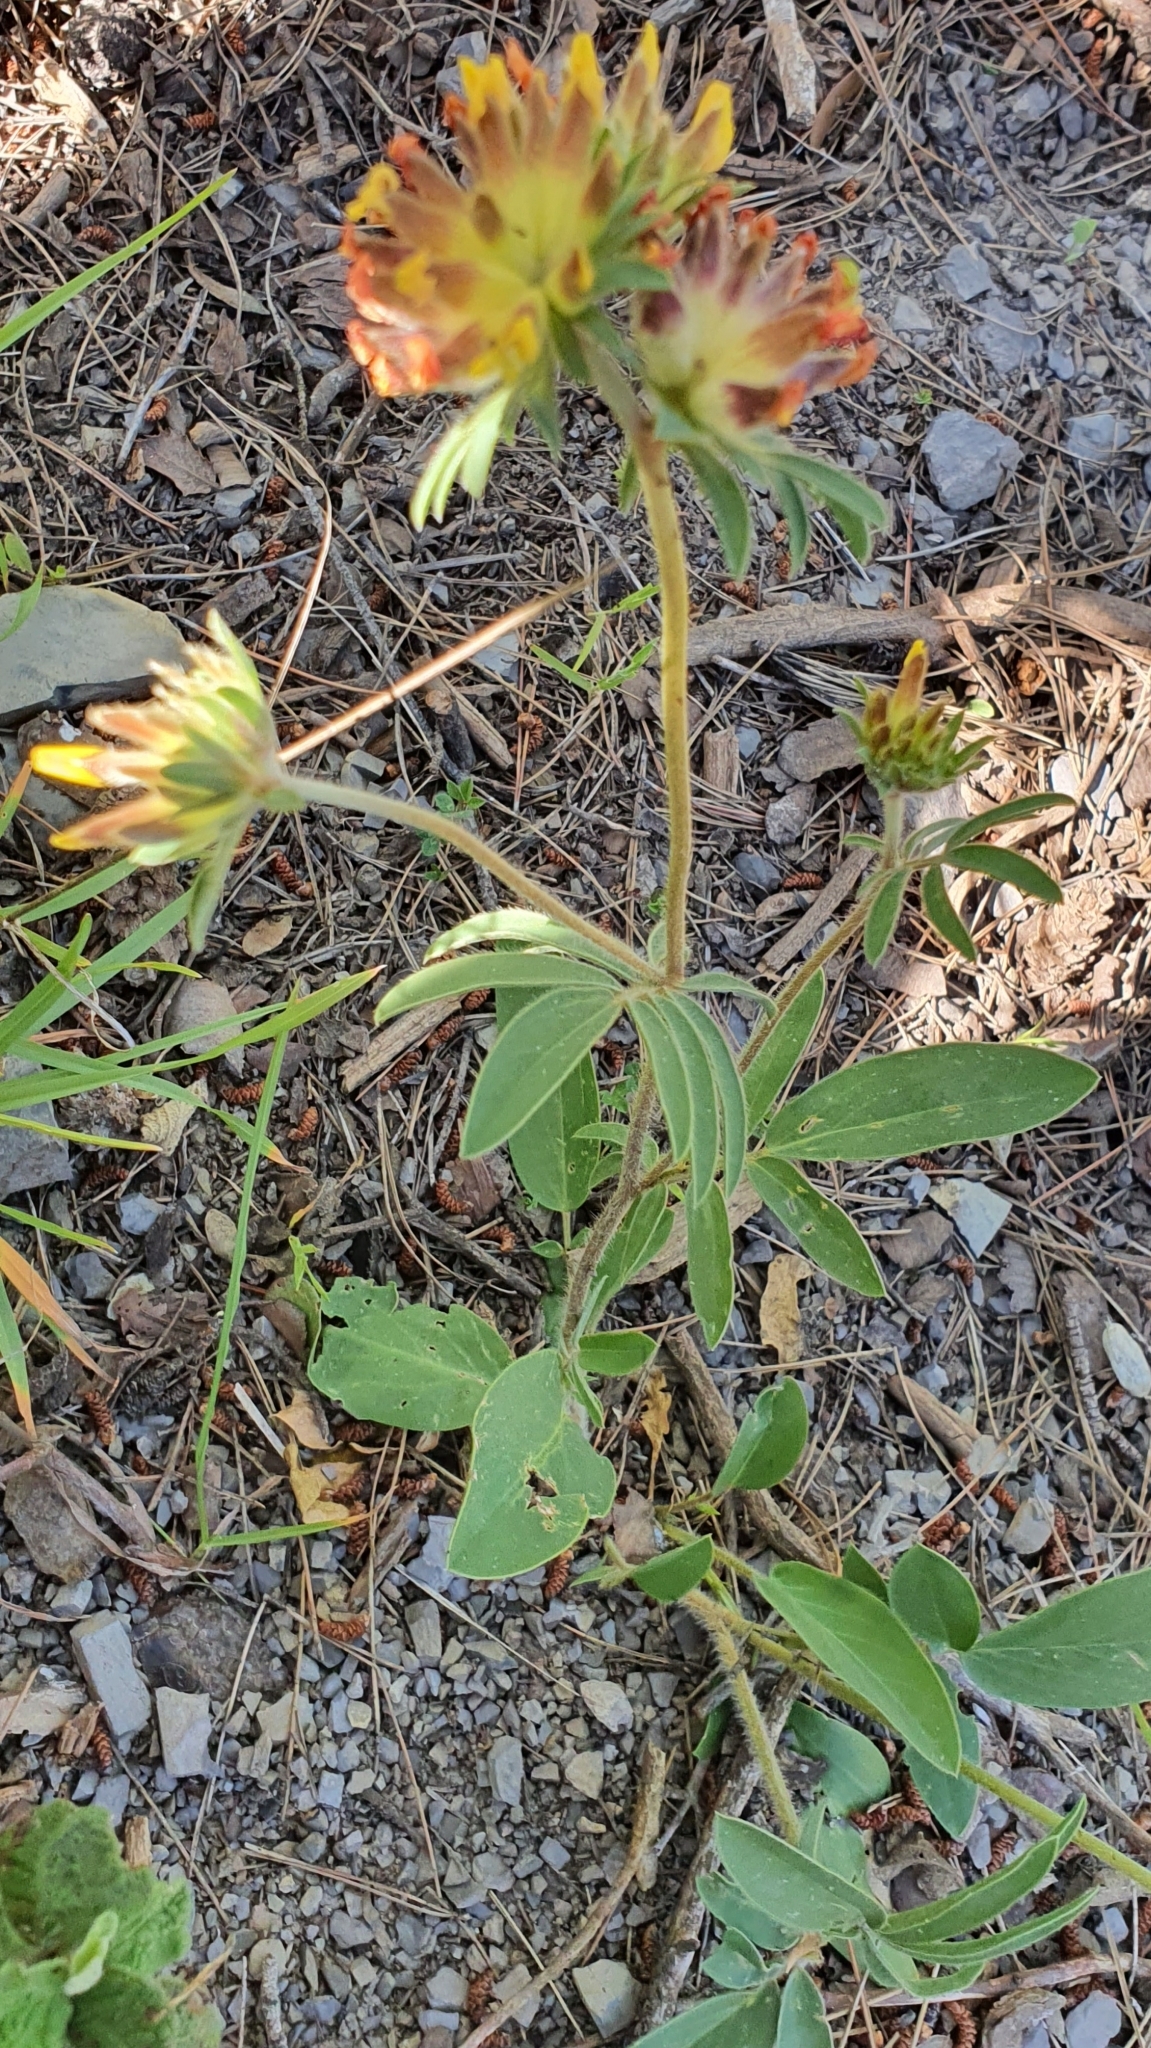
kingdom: Plantae
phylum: Tracheophyta
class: Magnoliopsida
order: Fabales
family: Fabaceae
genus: Anthyllis
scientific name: Anthyllis vulneraria
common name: Kidney vetch
